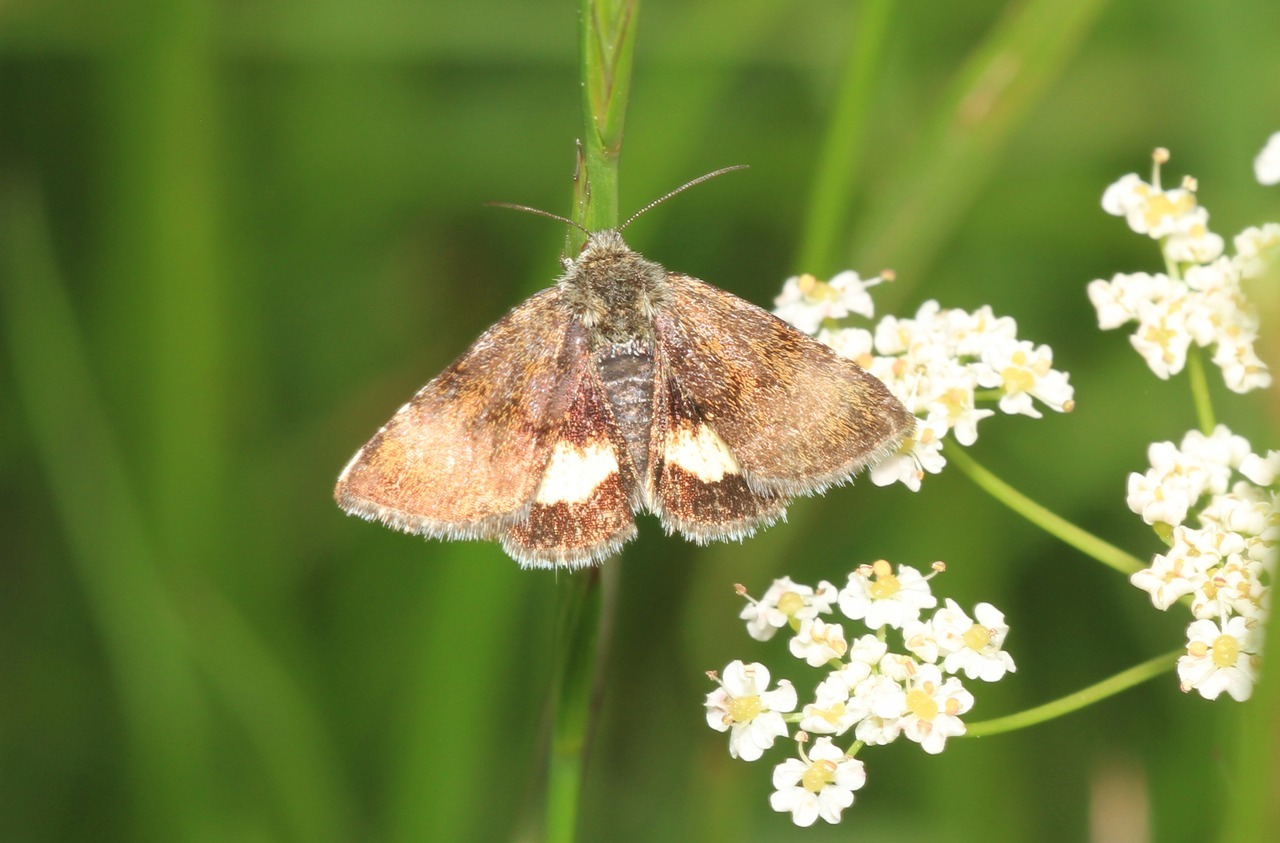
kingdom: Animalia
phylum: Arthropoda
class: Insecta
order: Lepidoptera
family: Noctuidae
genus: Panemeria
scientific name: Panemeria tenebrata
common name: Small yellow underwing
